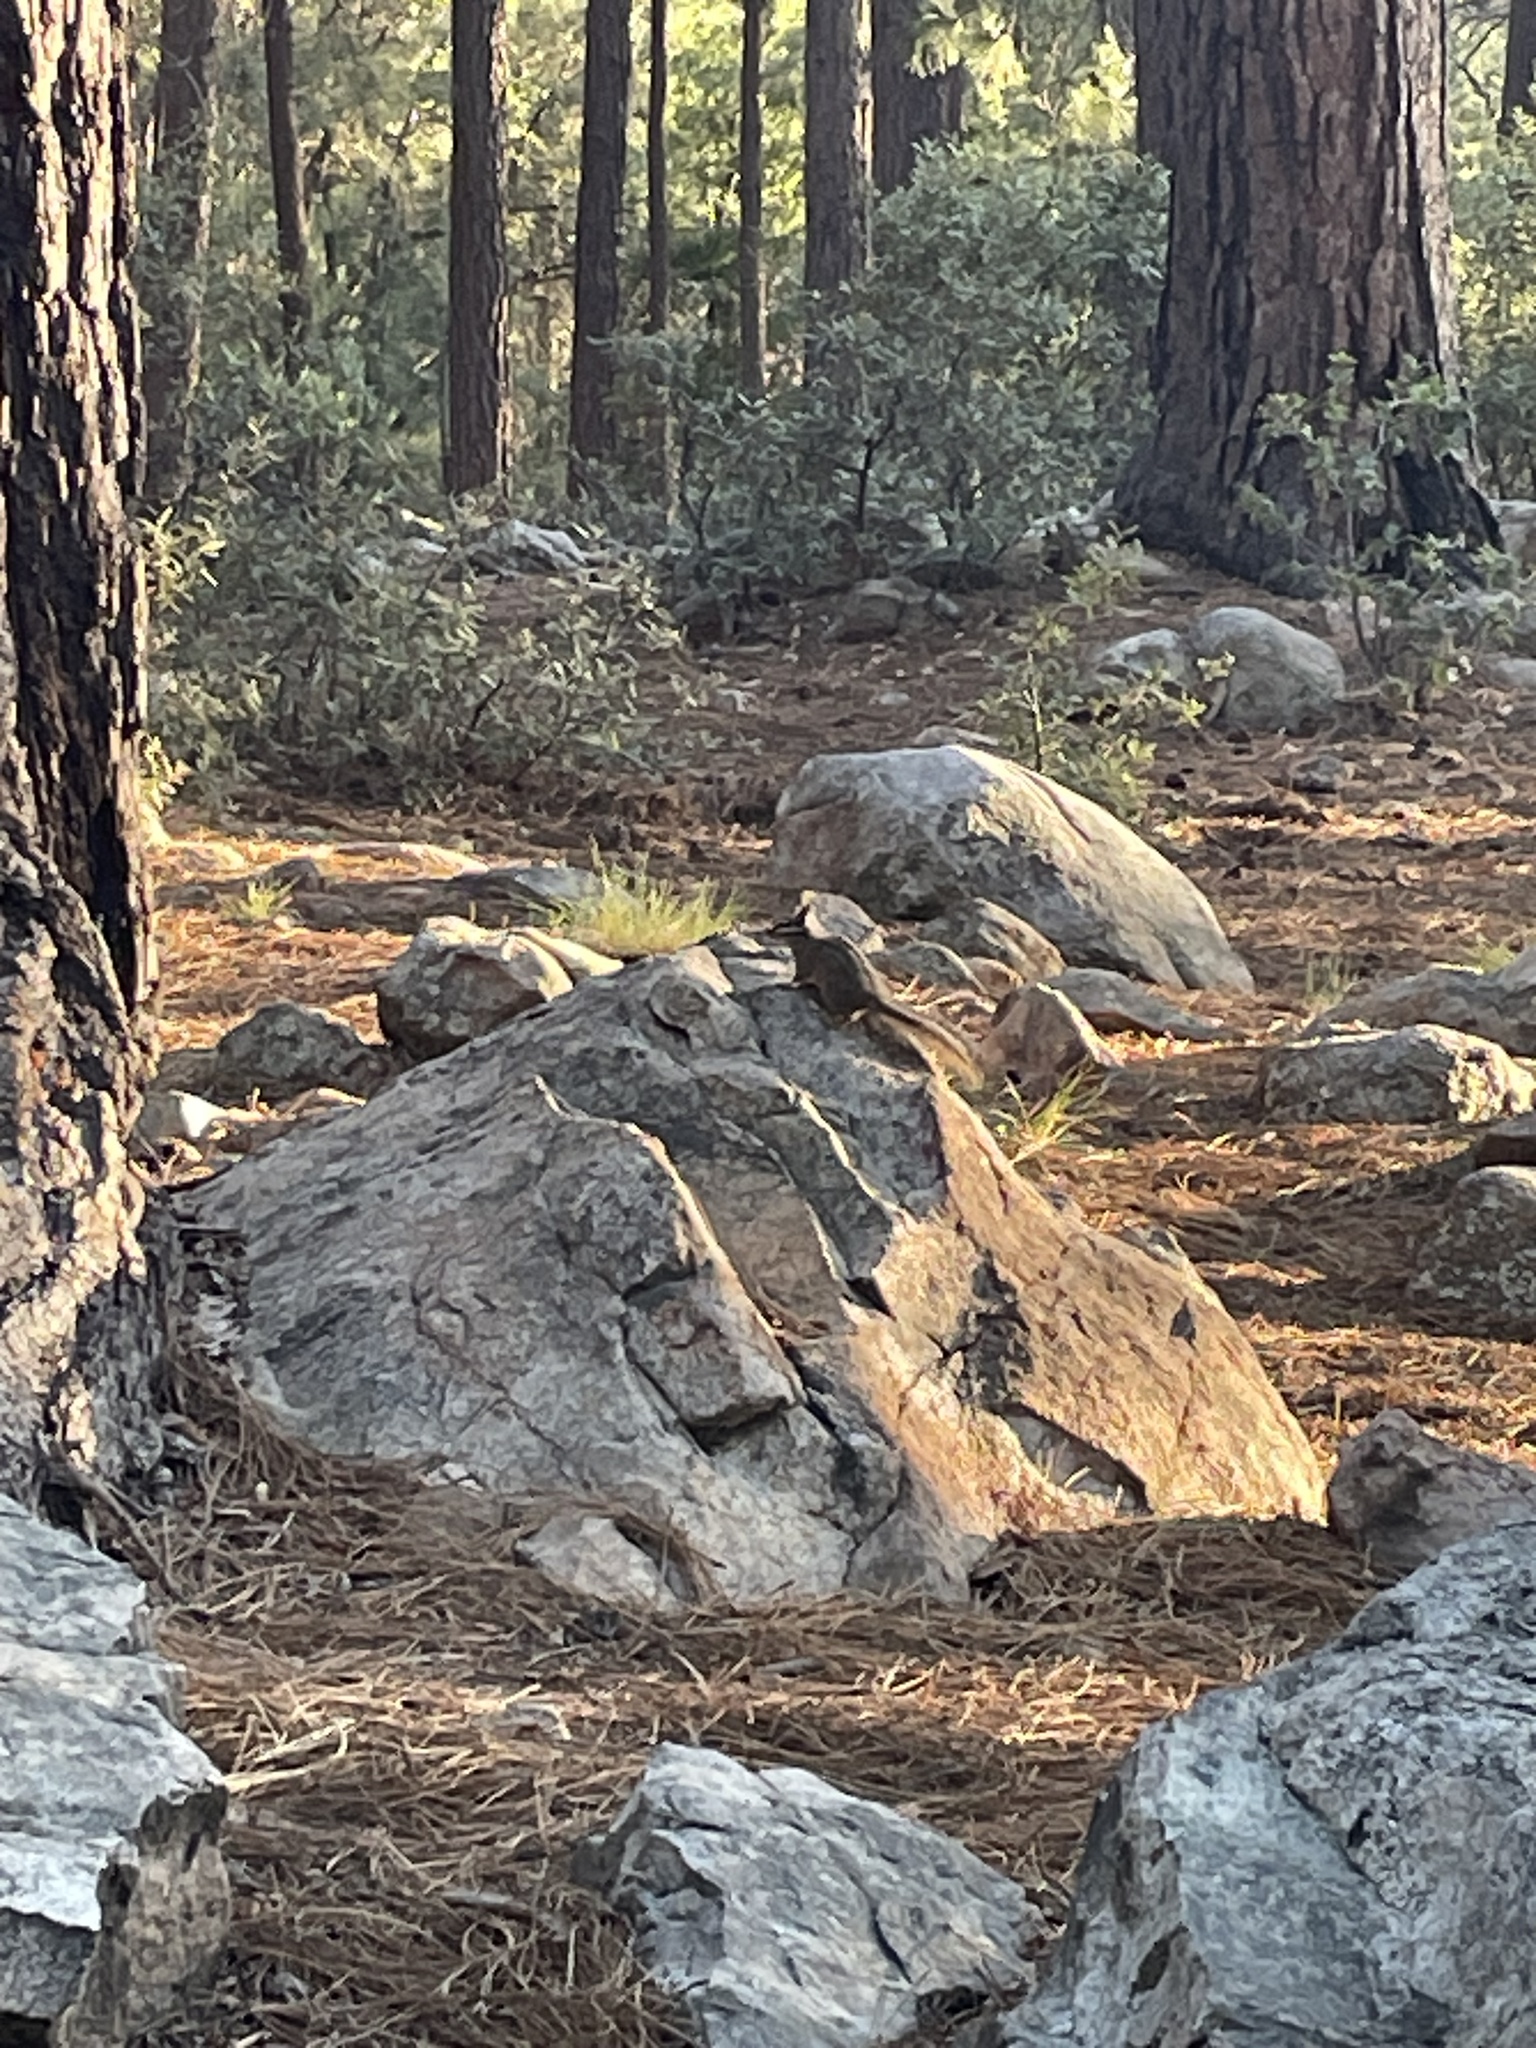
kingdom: Animalia
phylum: Chordata
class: Mammalia
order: Rodentia
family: Sciuridae
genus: Tamias
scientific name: Tamias dorsalis
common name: Cliff chipmunk
